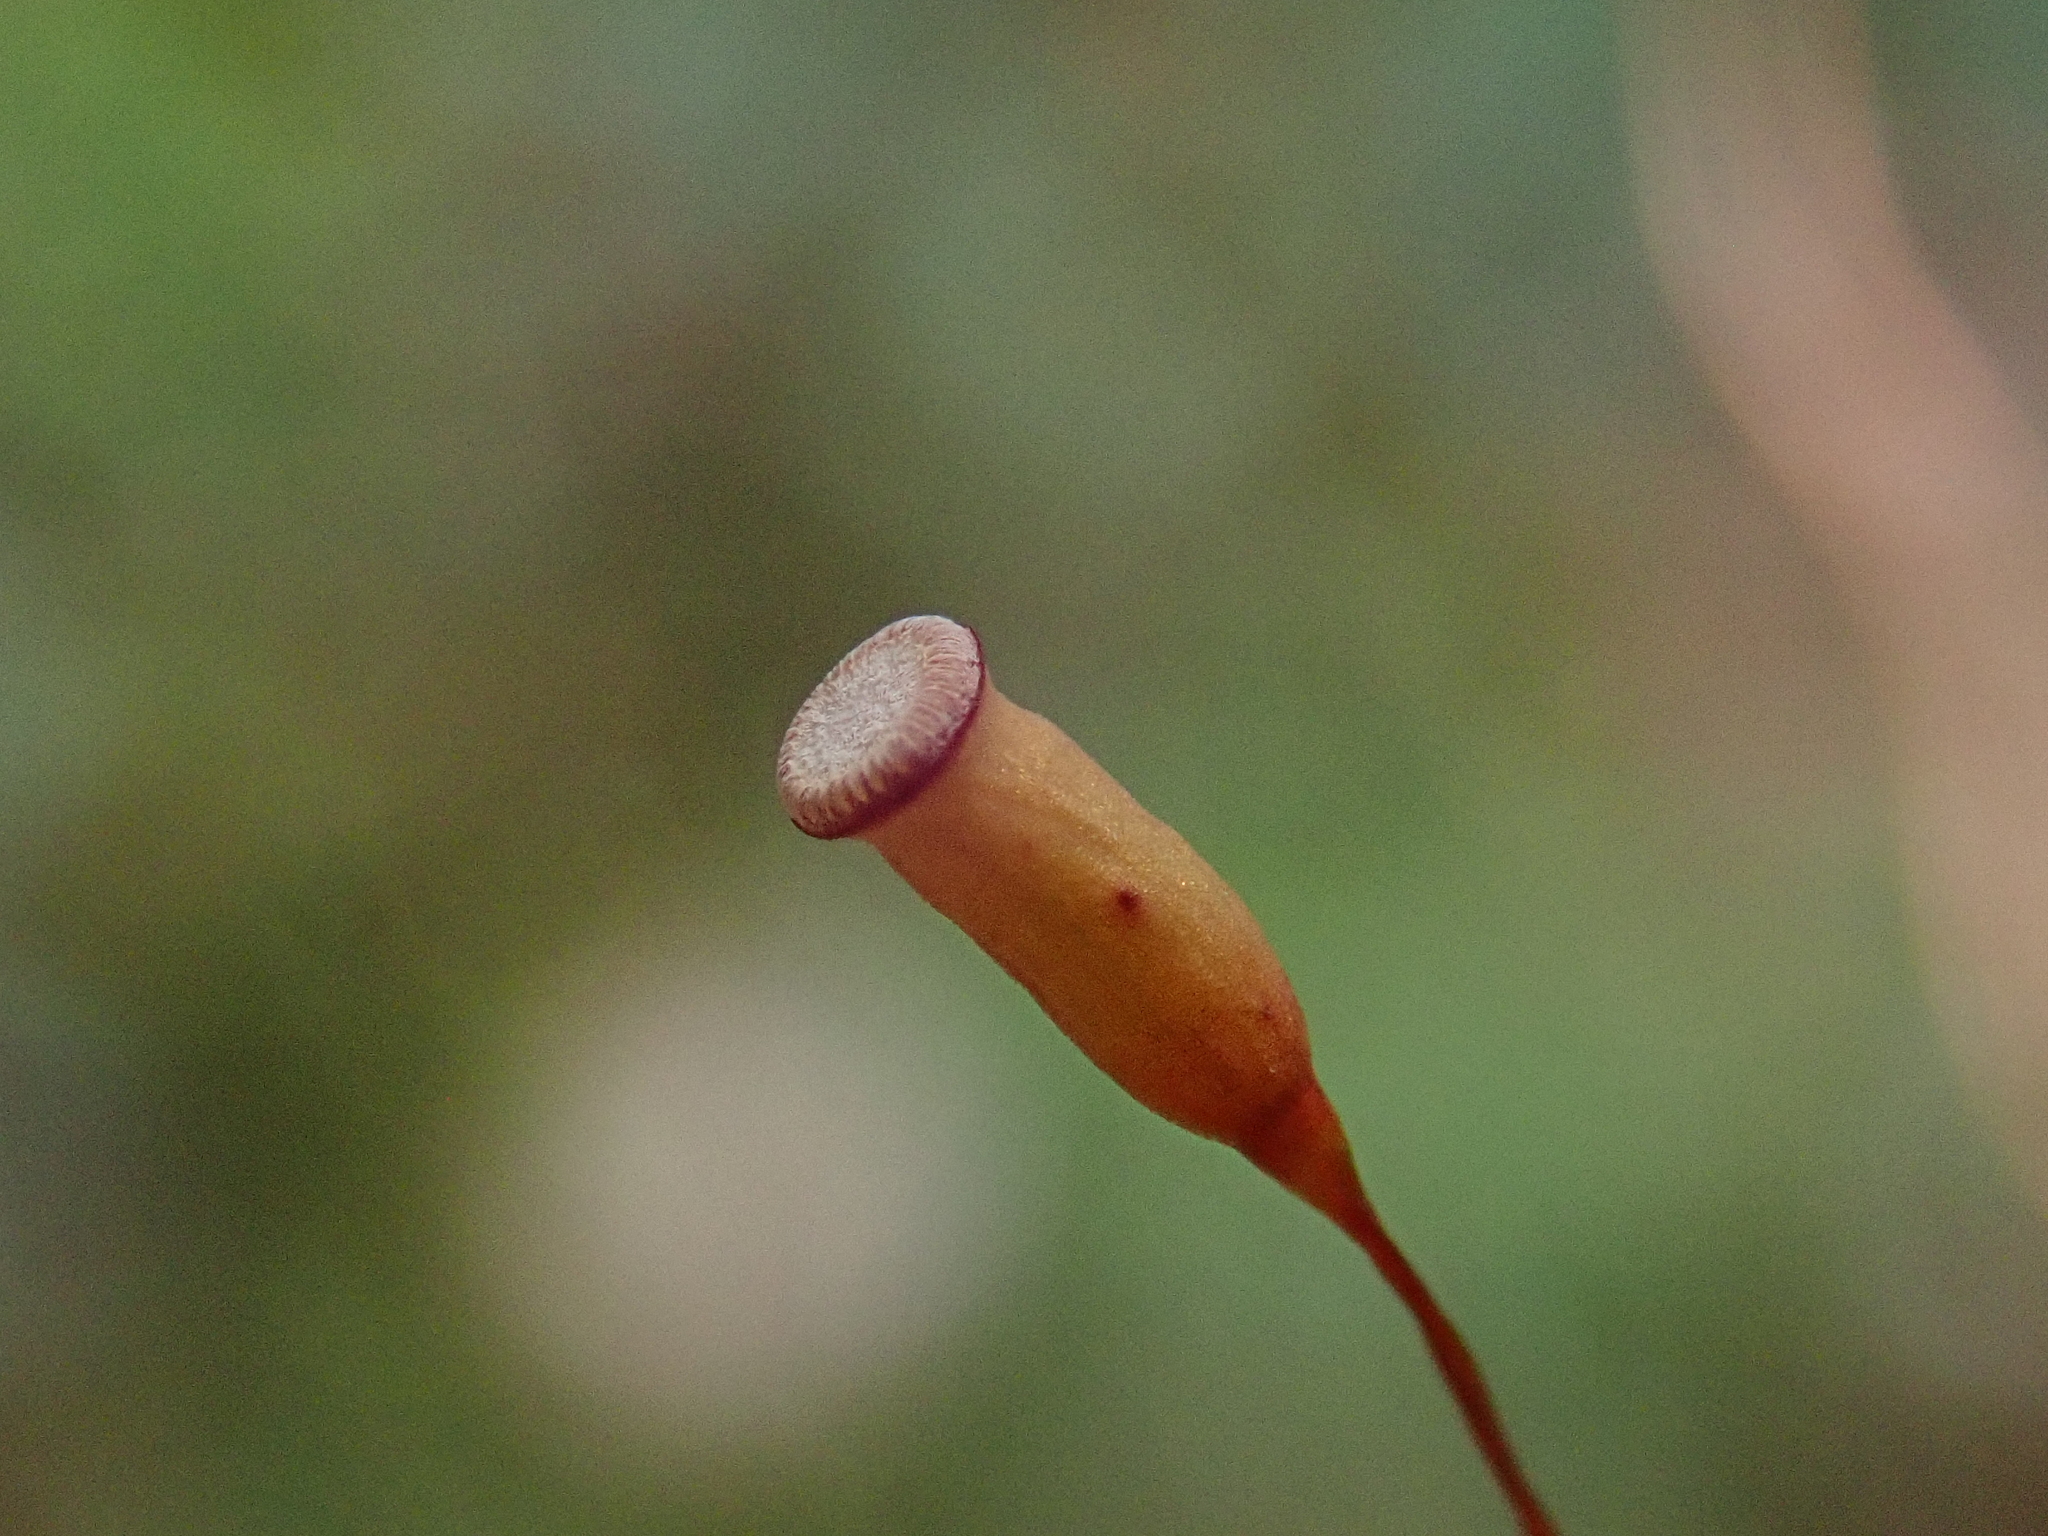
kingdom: Plantae
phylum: Bryophyta
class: Polytrichopsida
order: Polytrichales
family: Polytrichaceae
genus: Pogonatum
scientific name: Pogonatum aloides
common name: Aloe haircap
